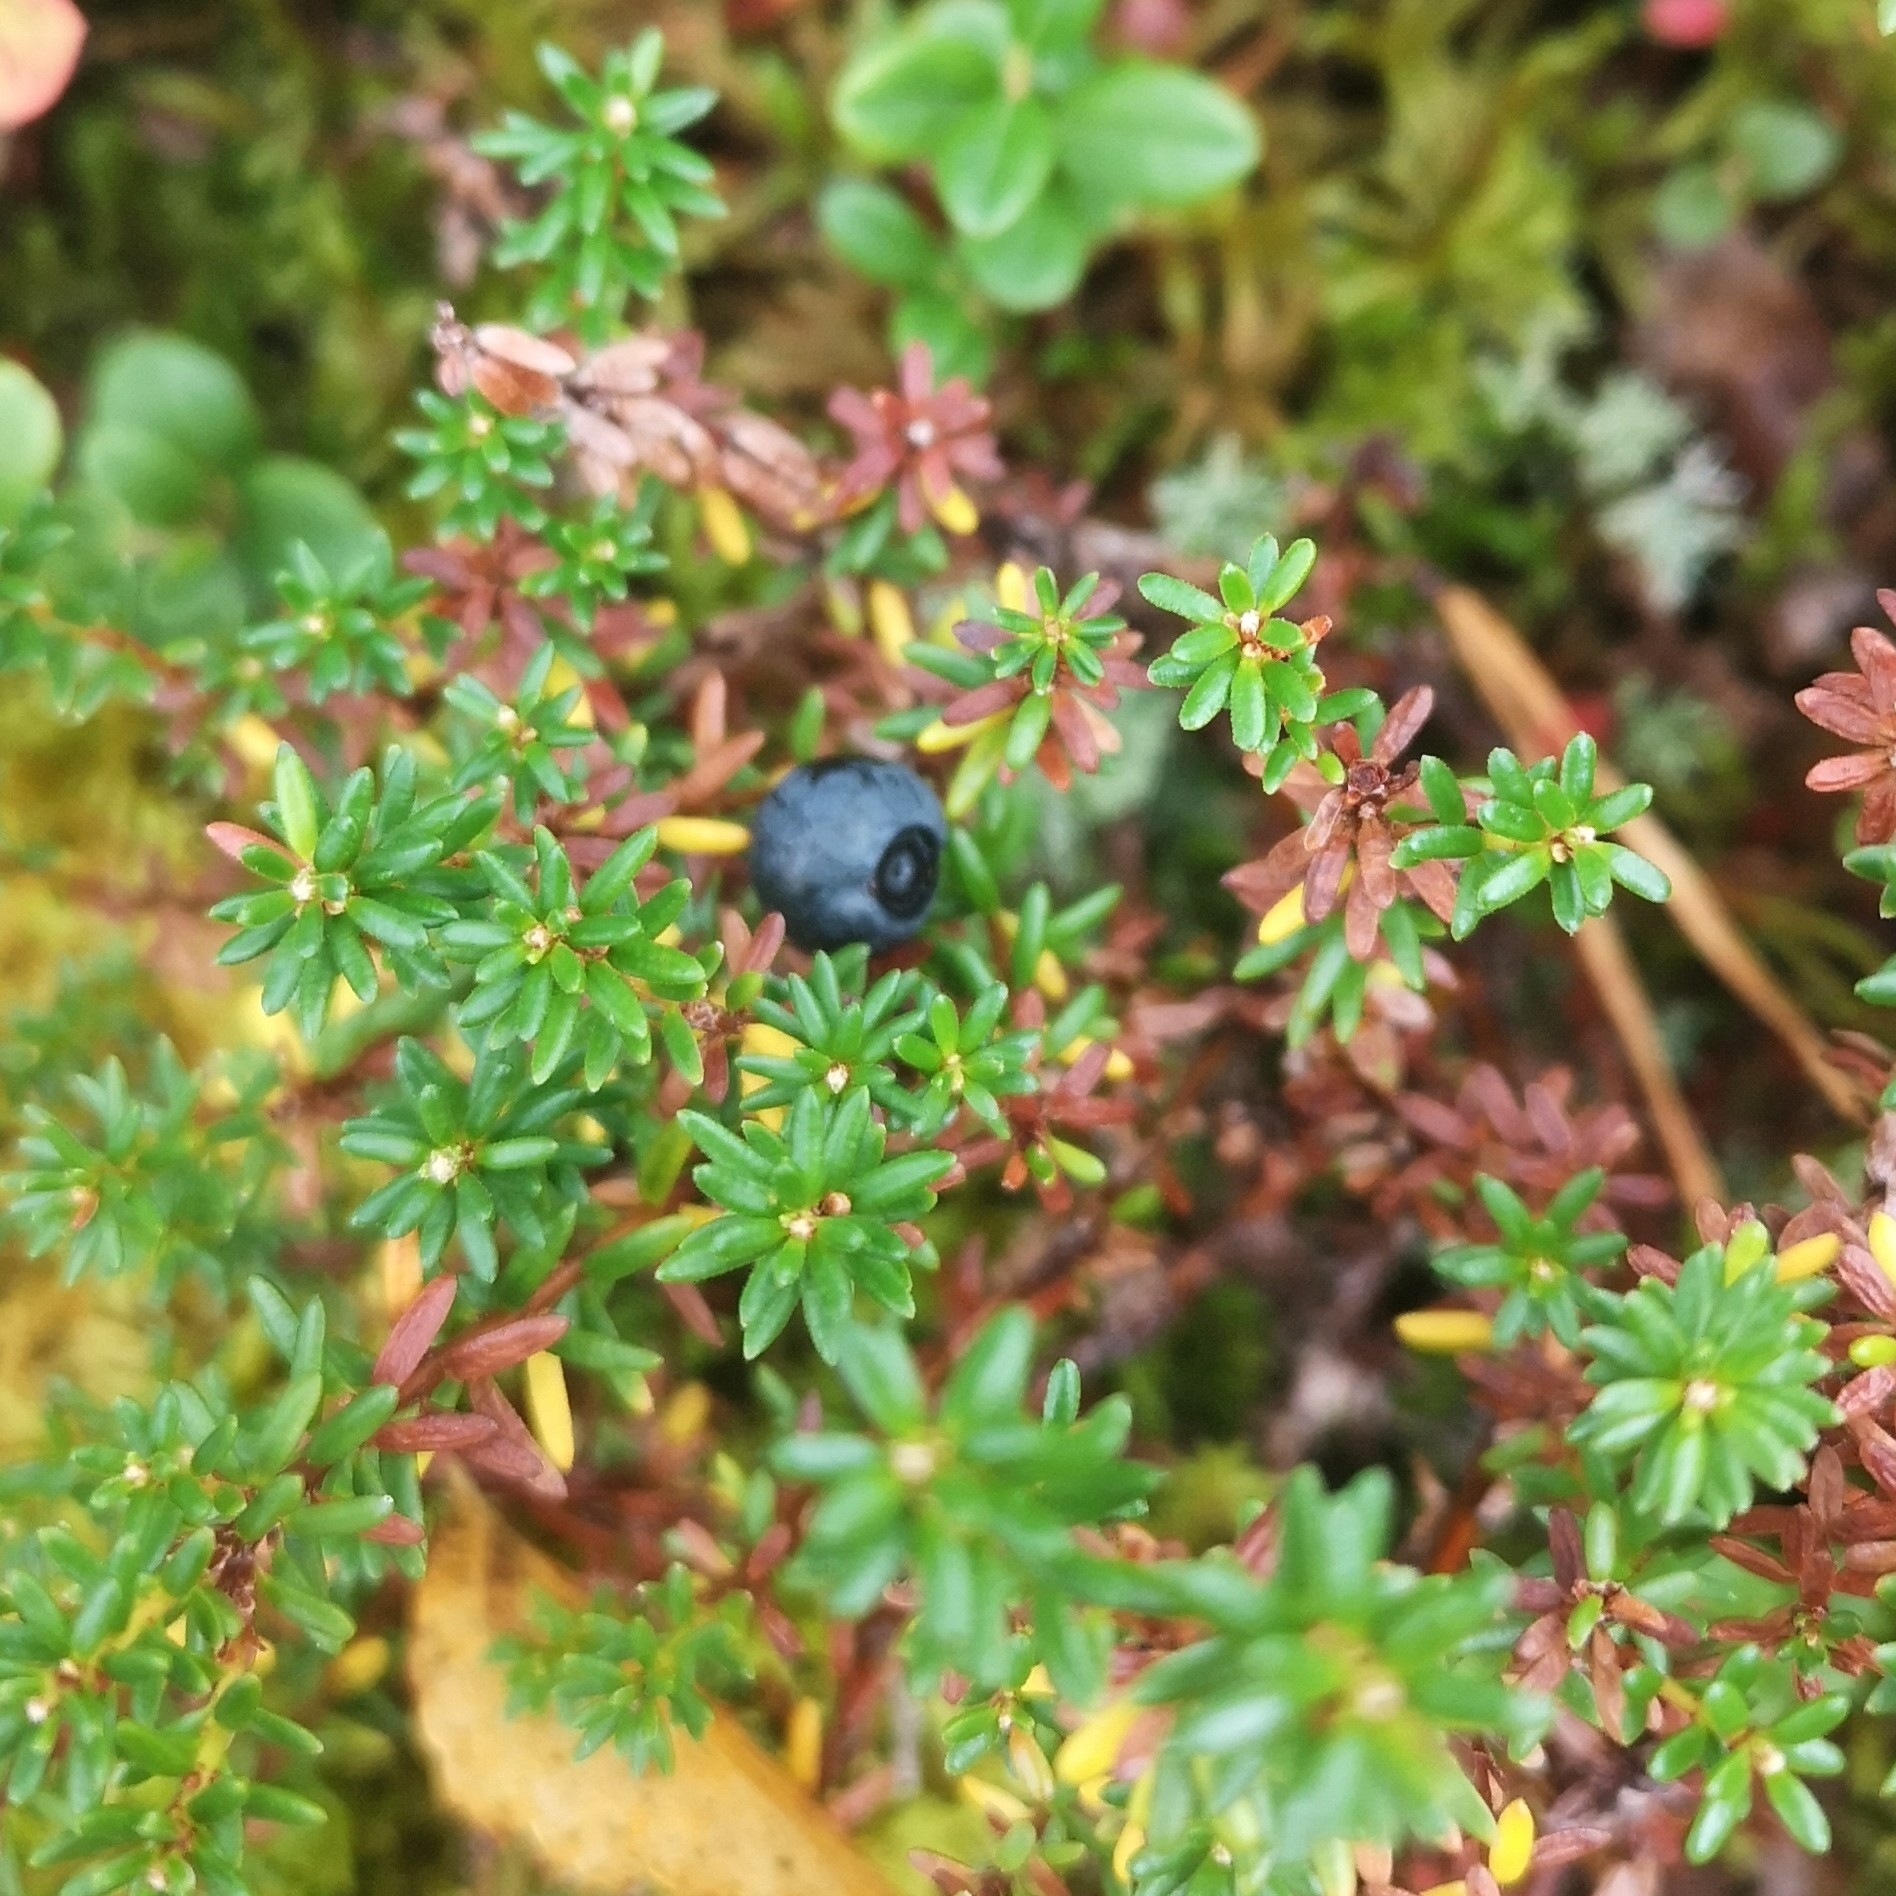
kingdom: Plantae
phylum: Tracheophyta
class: Magnoliopsida
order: Ericales
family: Ericaceae
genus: Empetrum
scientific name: Empetrum nigrum
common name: Black crowberry
